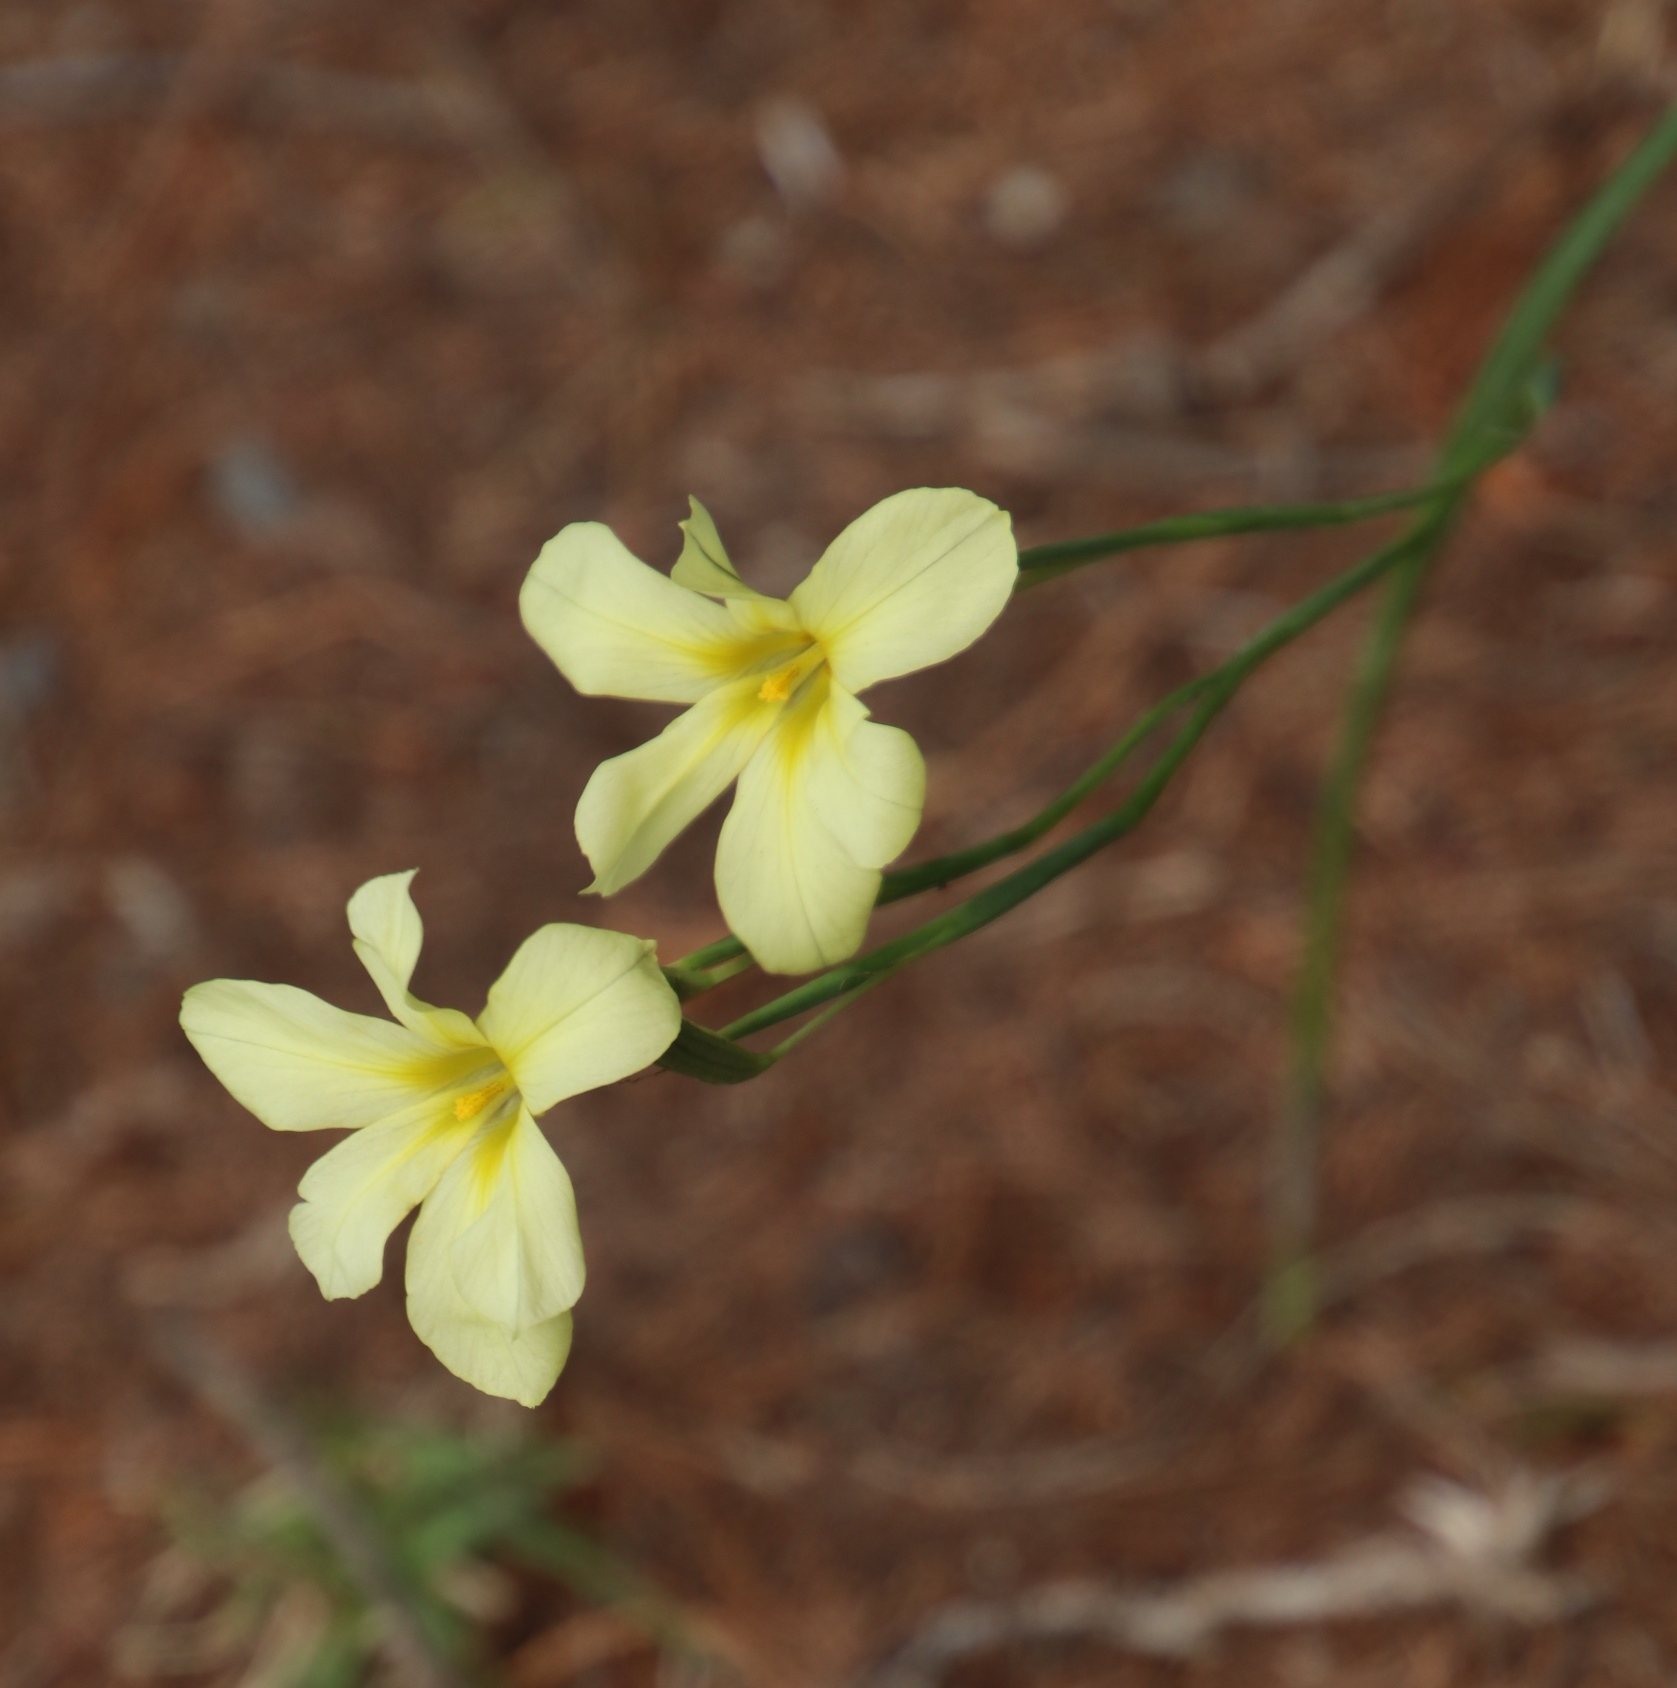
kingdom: Plantae
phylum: Tracheophyta
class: Liliopsida
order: Asparagales
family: Iridaceae
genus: Moraea
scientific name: Moraea collina
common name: Cape-tulip
